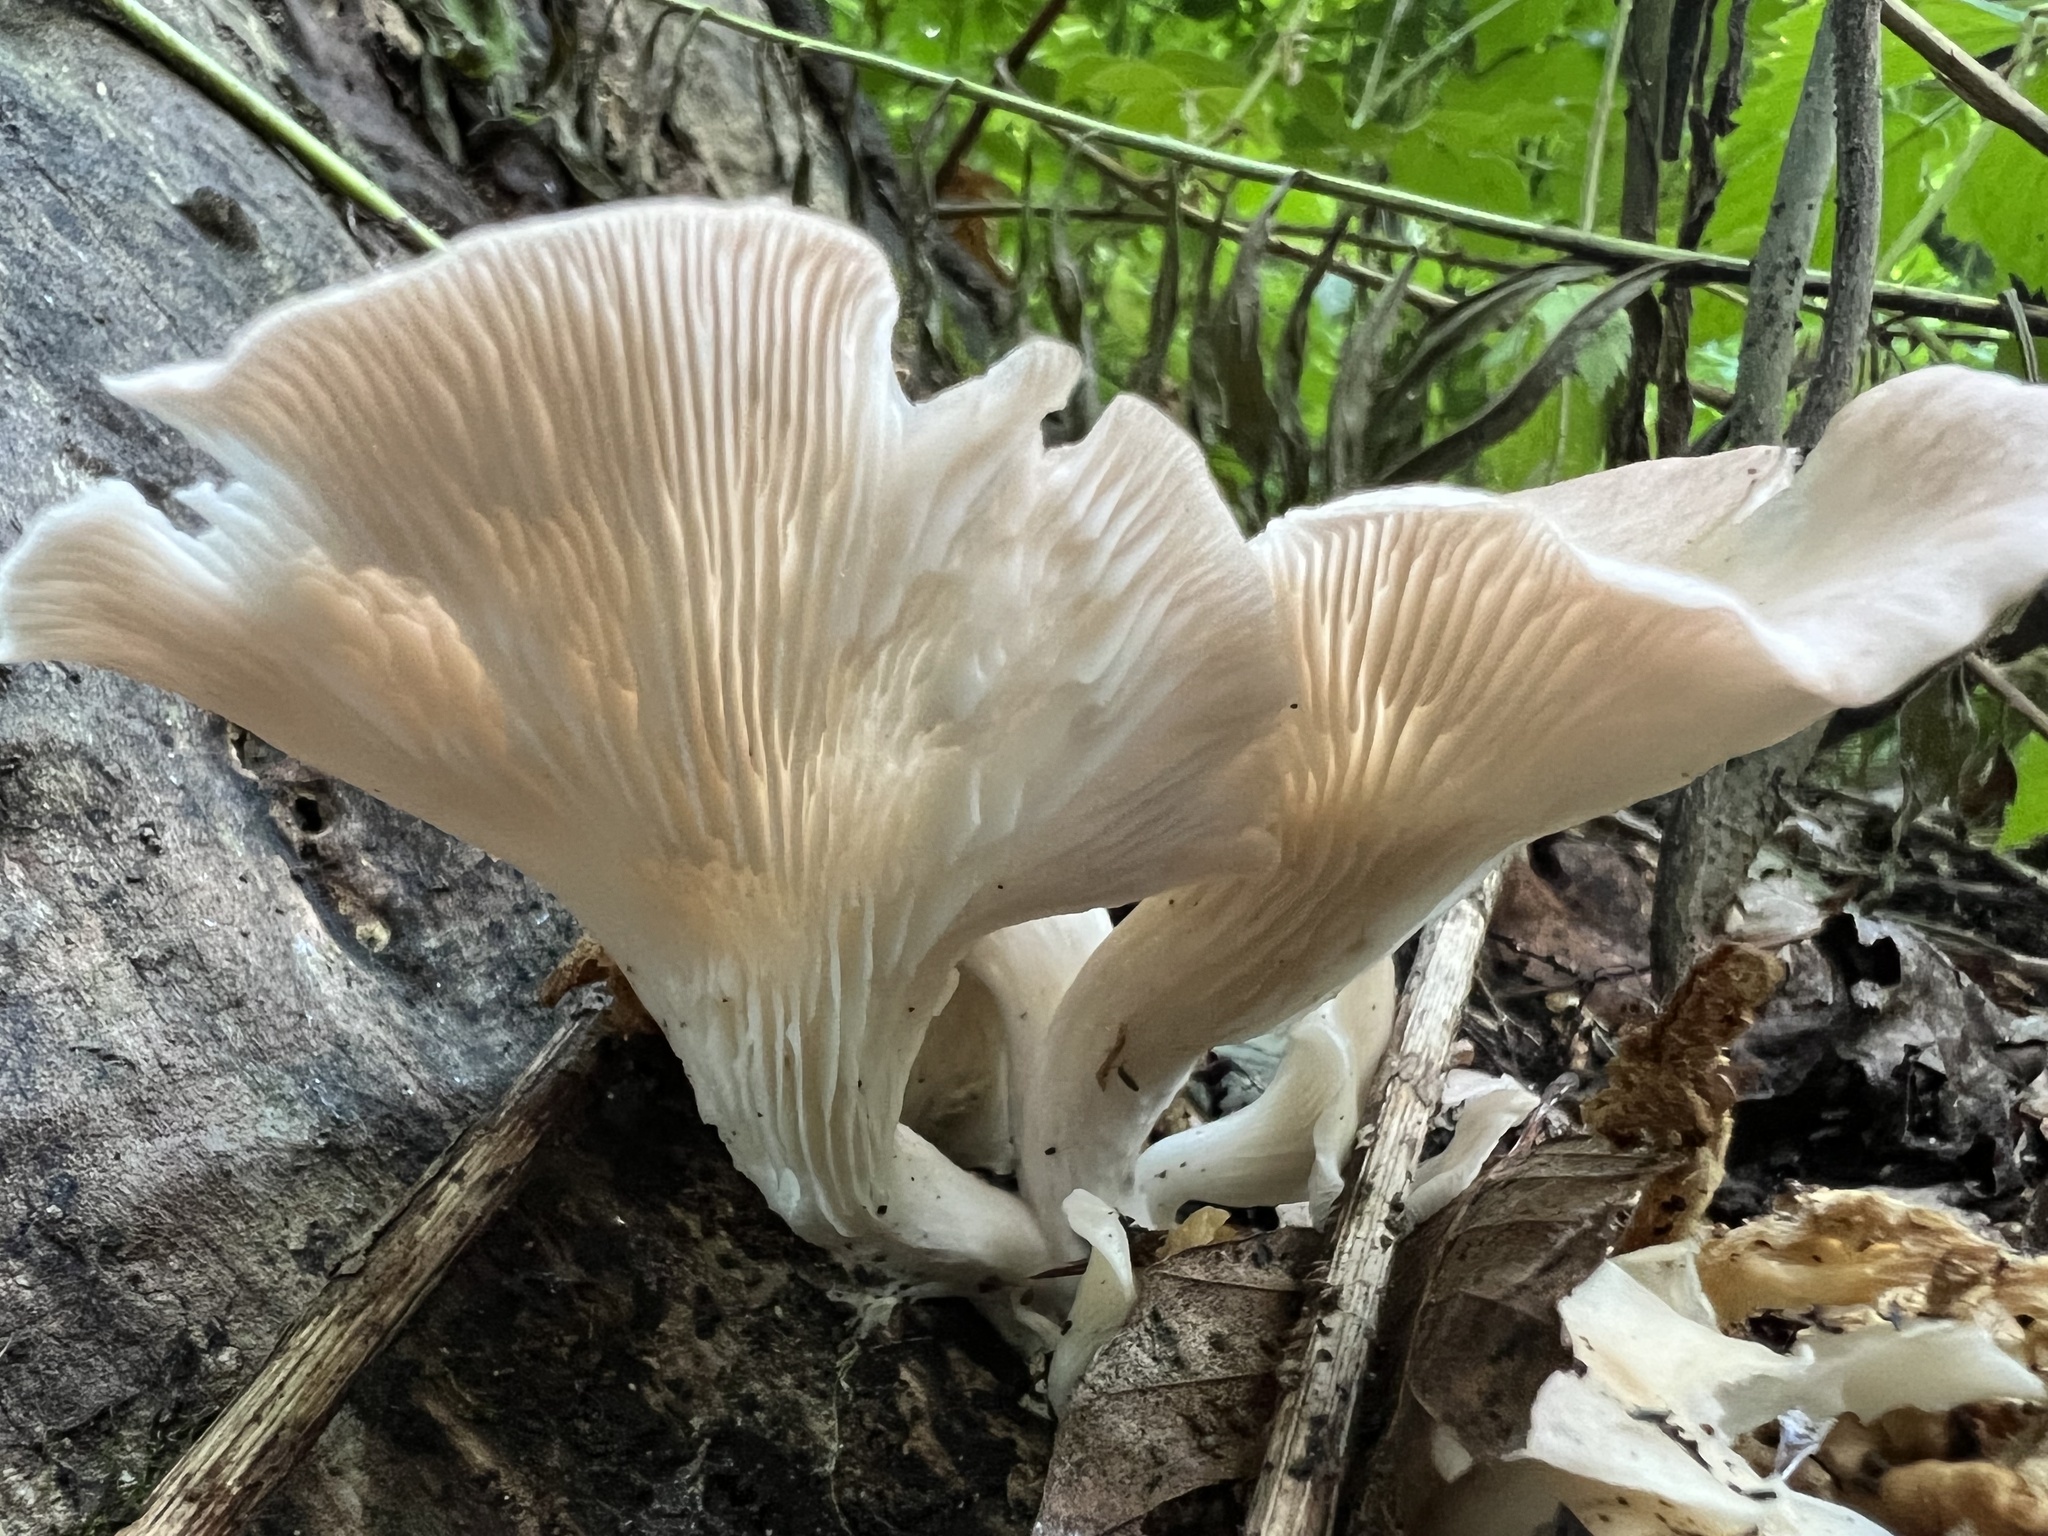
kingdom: Fungi
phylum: Basidiomycota
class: Agaricomycetes
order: Agaricales
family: Pleurotaceae
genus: Pleurotus
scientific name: Pleurotus pulmonarius
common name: Pale oyster
